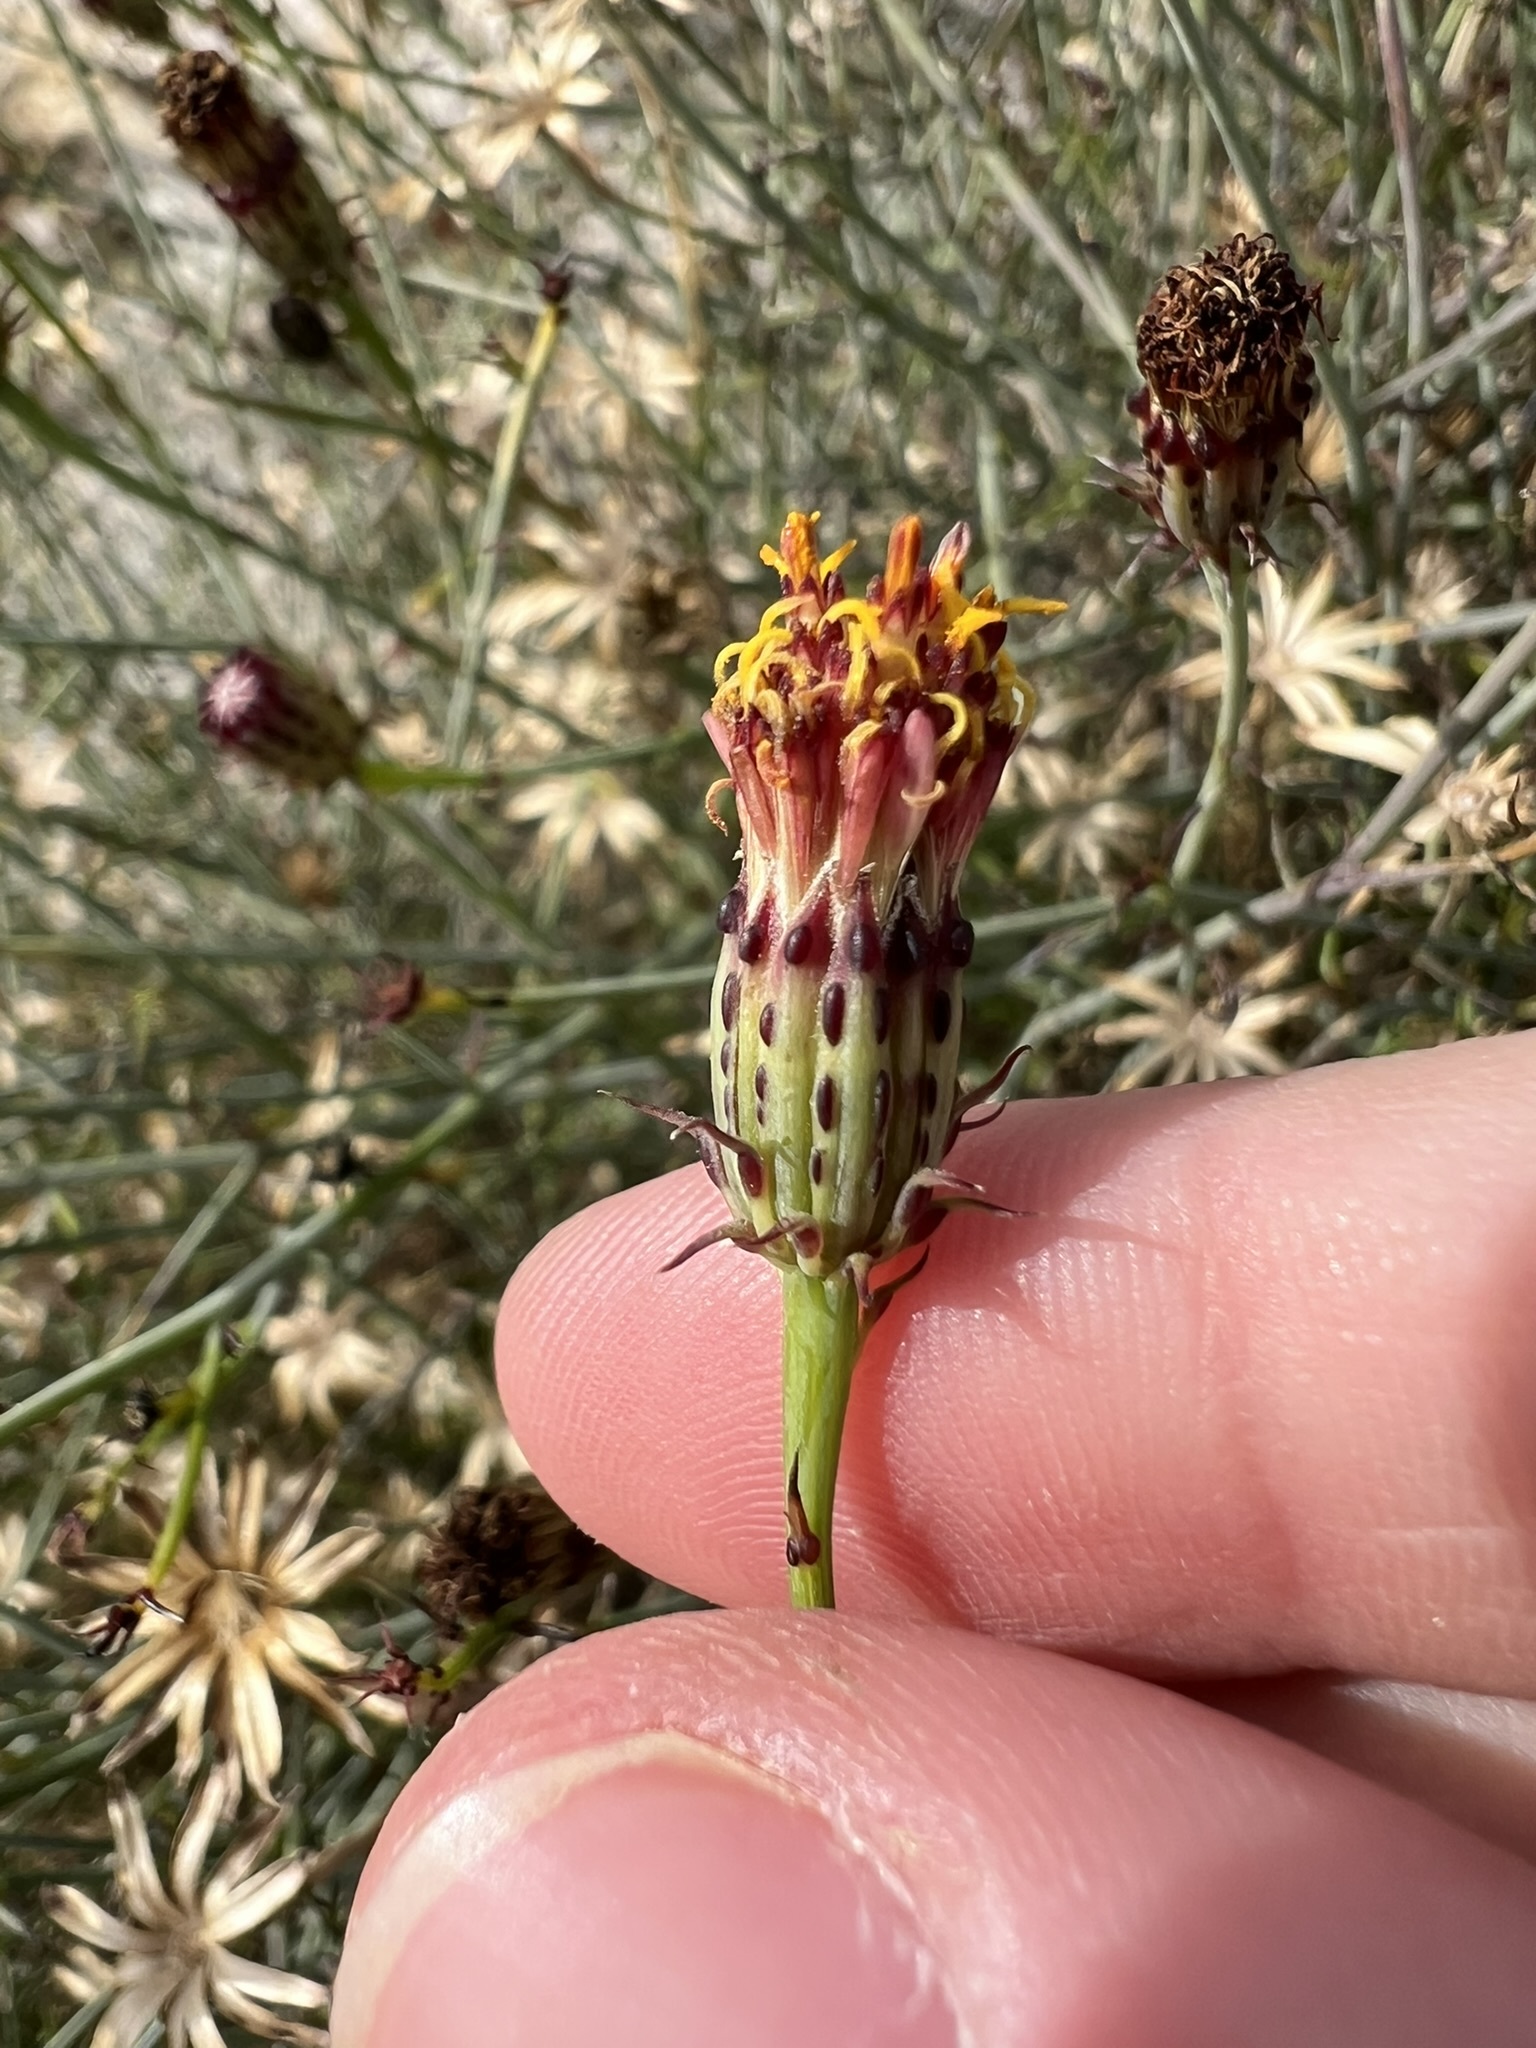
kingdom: Plantae
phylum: Tracheophyta
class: Magnoliopsida
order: Asterales
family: Asteraceae
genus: Adenophyllum
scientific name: Adenophyllum porophylloides
